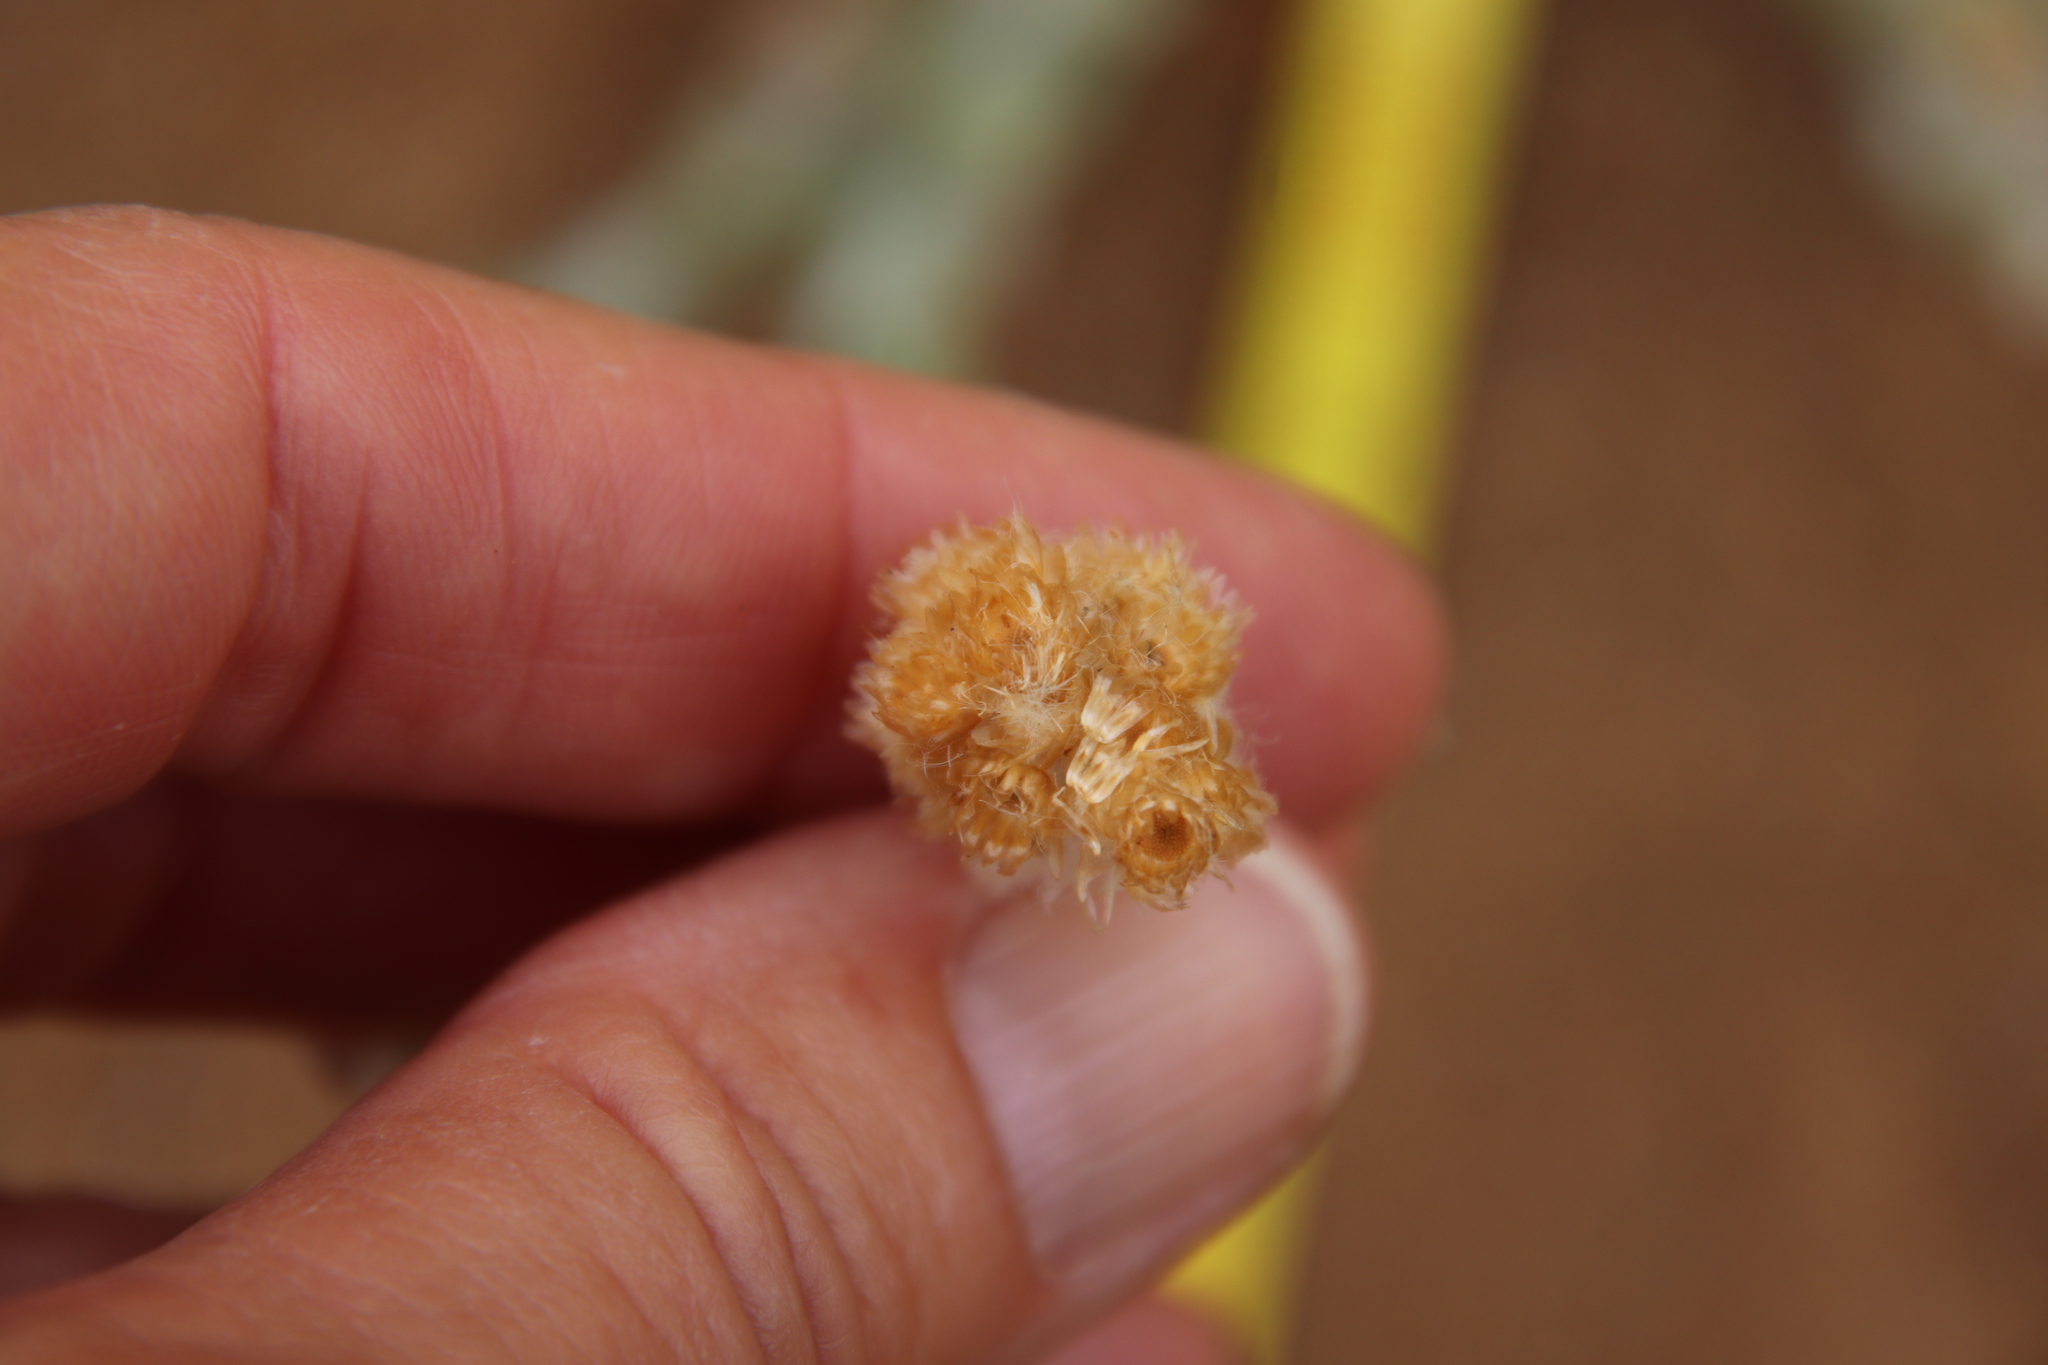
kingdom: Plantae
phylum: Tracheophyta
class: Magnoliopsida
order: Asterales
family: Asteraceae
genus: Helichrysum
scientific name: Helichrysum luteoalbum
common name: Daisy
